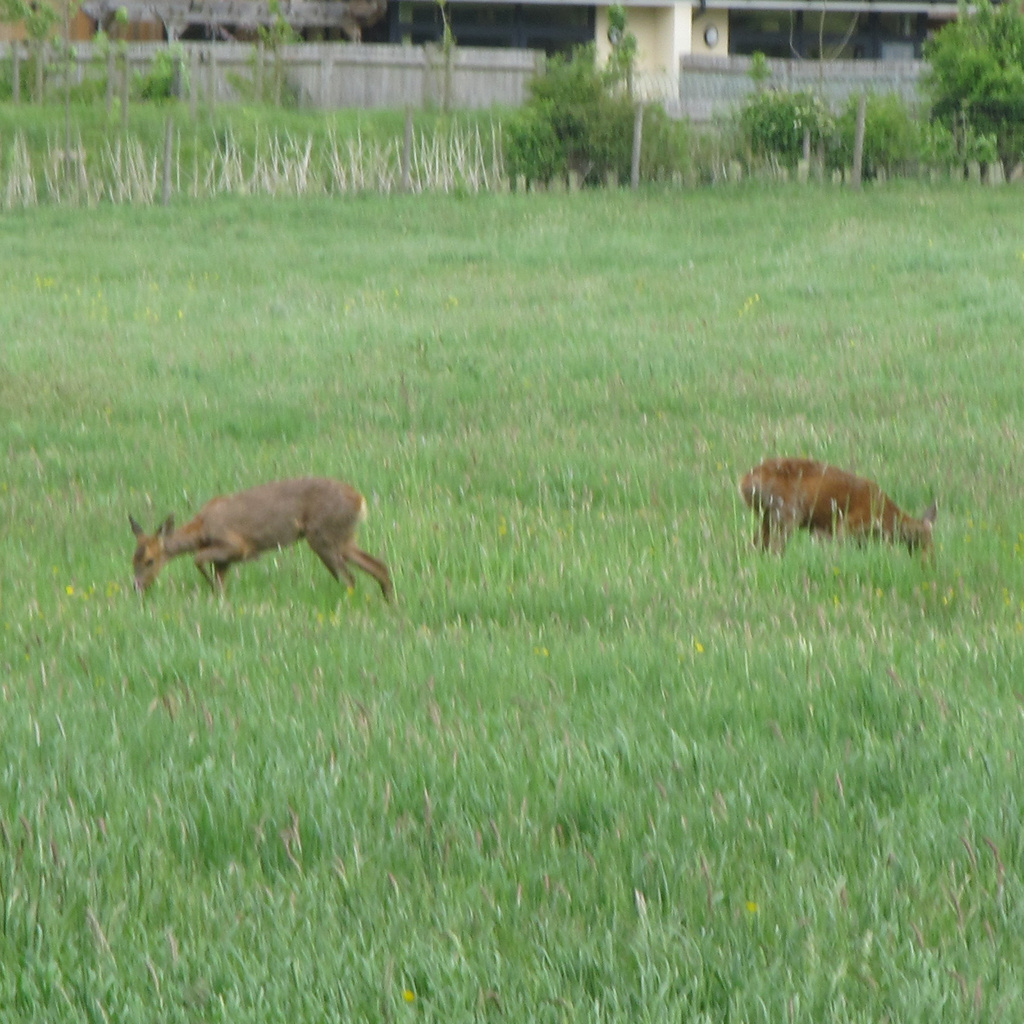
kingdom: Animalia
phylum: Chordata
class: Mammalia
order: Artiodactyla
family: Cervidae
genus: Capreolus
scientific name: Capreolus capreolus
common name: Western roe deer
